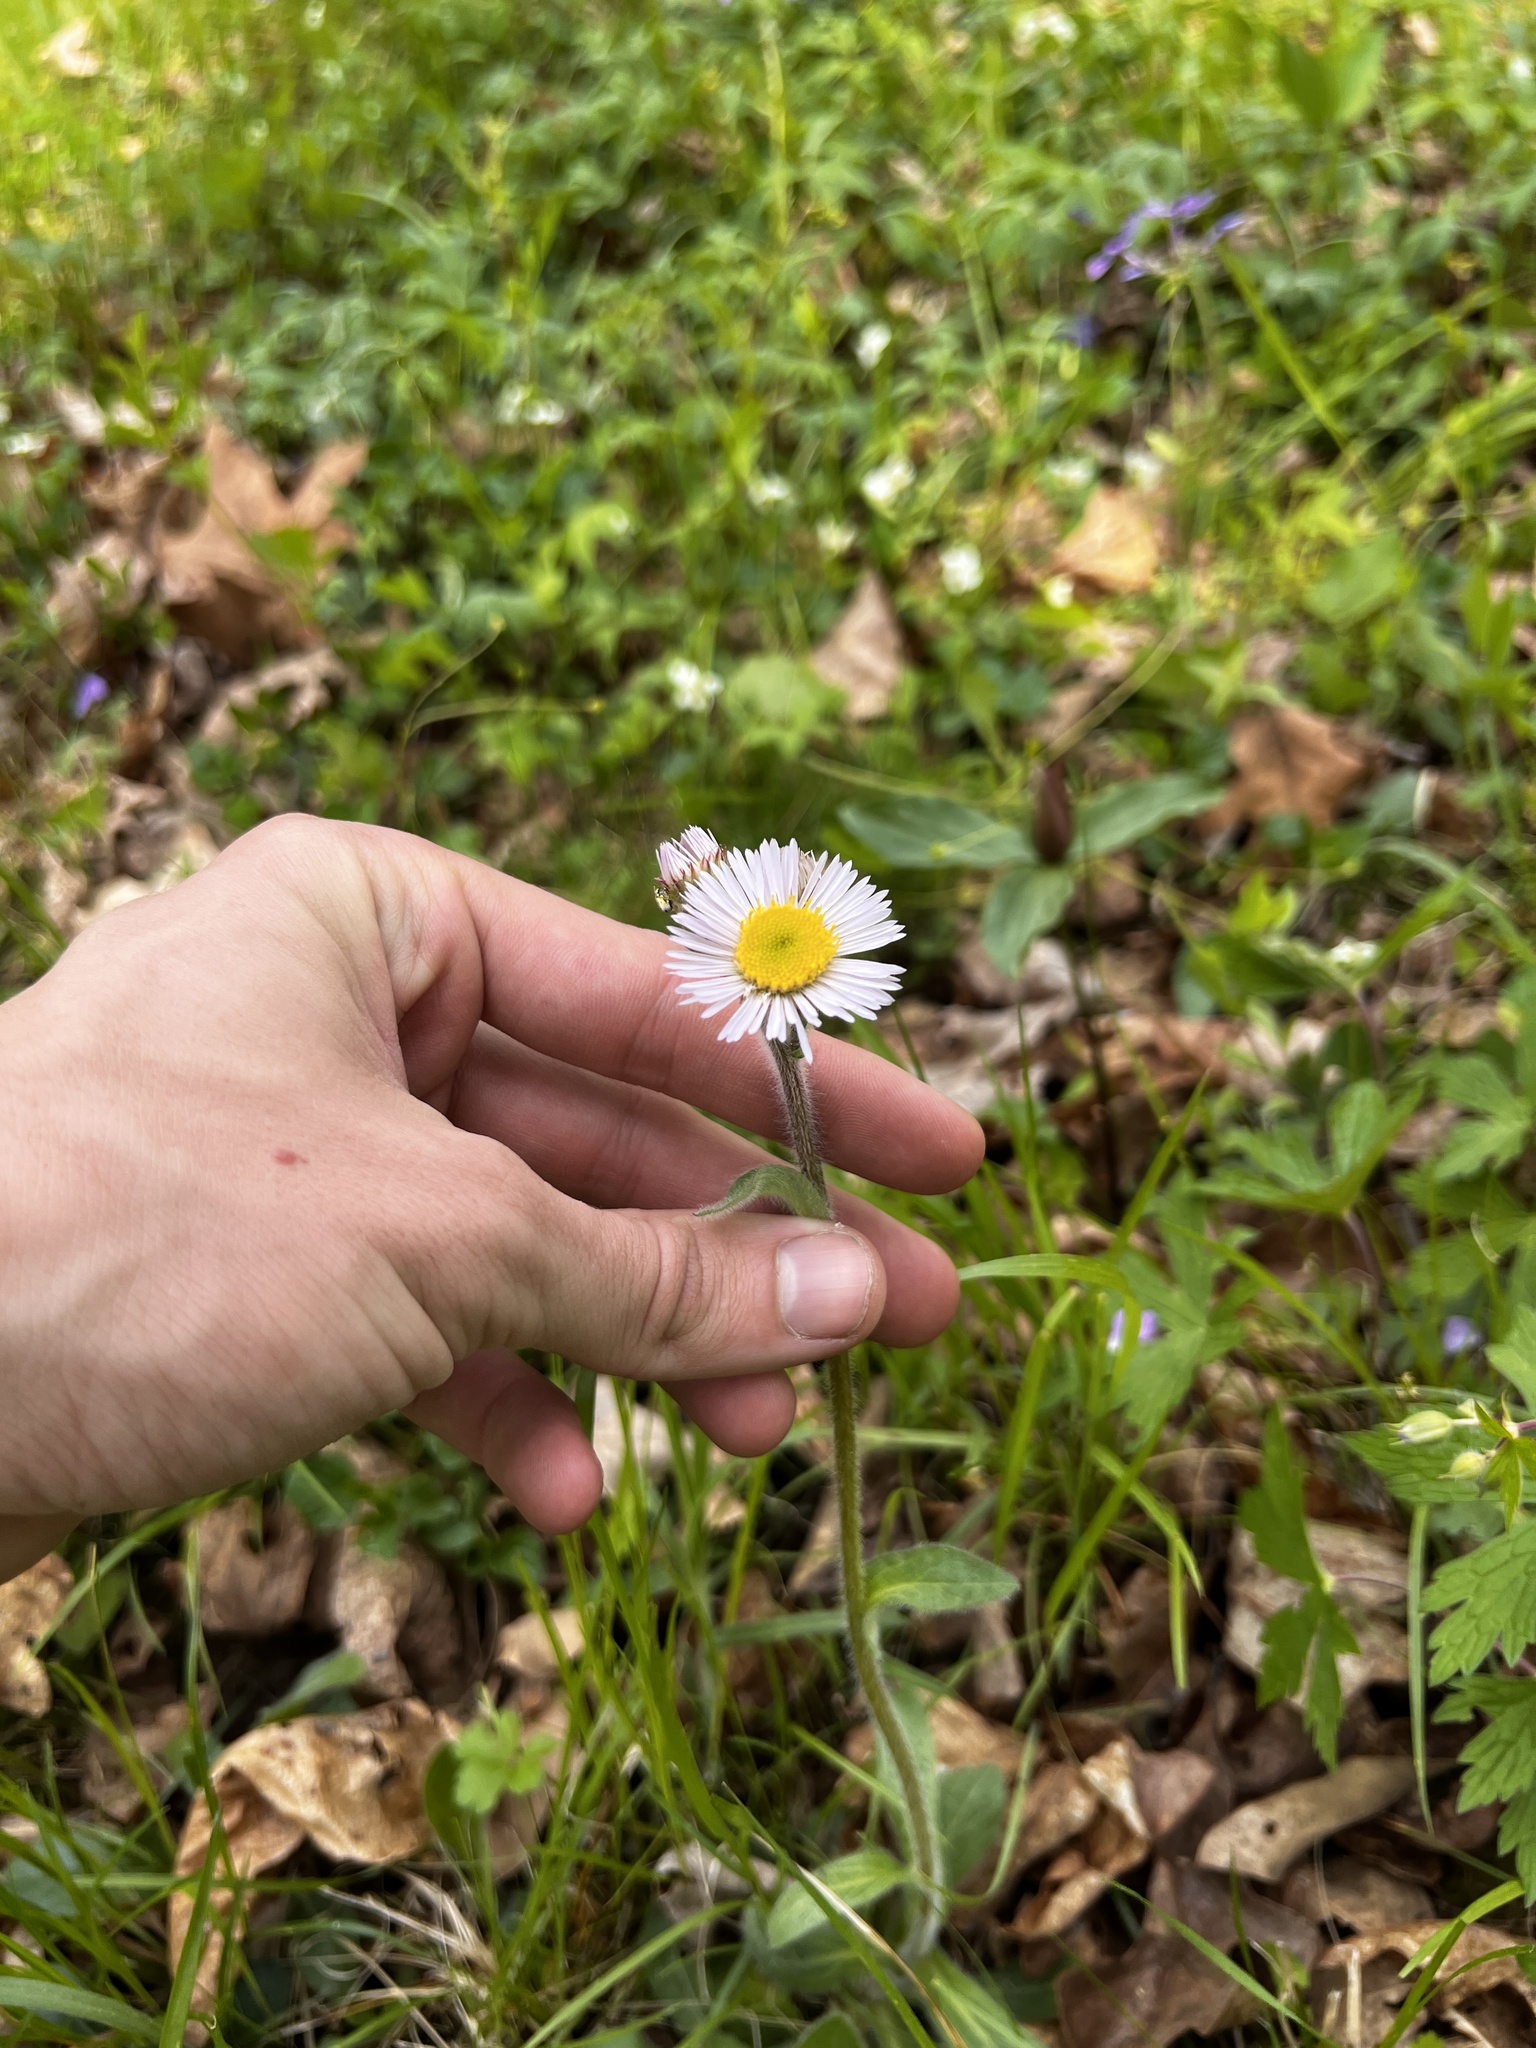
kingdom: Plantae
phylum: Tracheophyta
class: Magnoliopsida
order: Asterales
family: Asteraceae
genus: Erigeron
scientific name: Erigeron pulchellus
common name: Hairy fleabane
